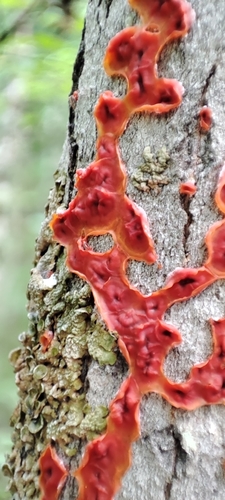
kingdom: Fungi
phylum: Basidiomycota
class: Agaricomycetes
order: Corticiales
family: Vuilleminiaceae
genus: Cytidia
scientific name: Cytidia salicina
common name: Scarlet splash
